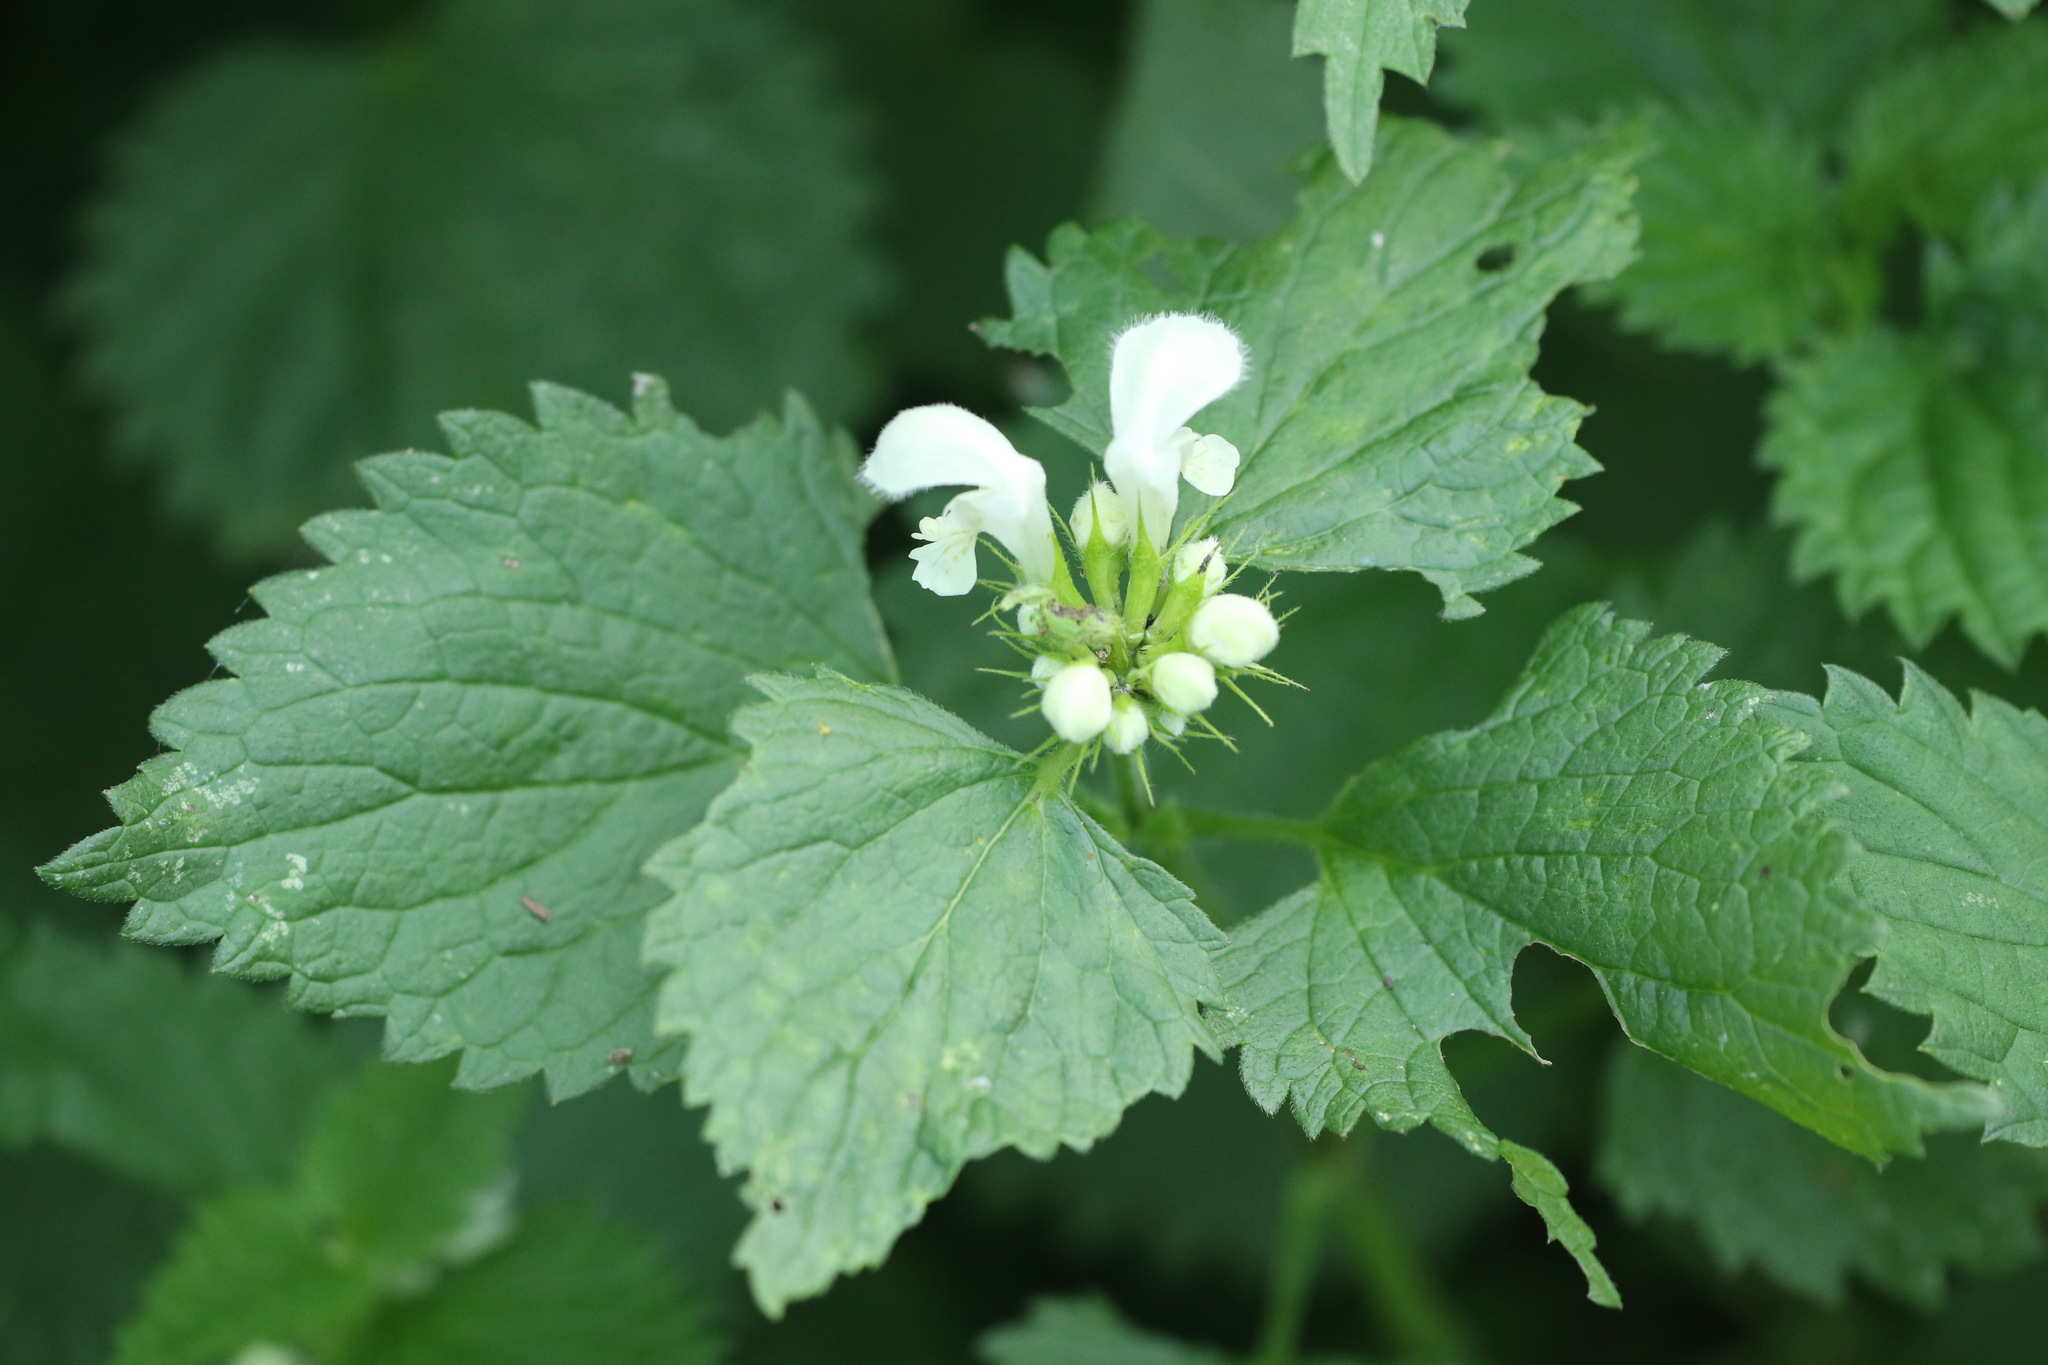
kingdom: Plantae
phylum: Tracheophyta
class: Magnoliopsida
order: Lamiales
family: Lamiaceae
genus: Lamium
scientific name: Lamium album
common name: White dead-nettle
